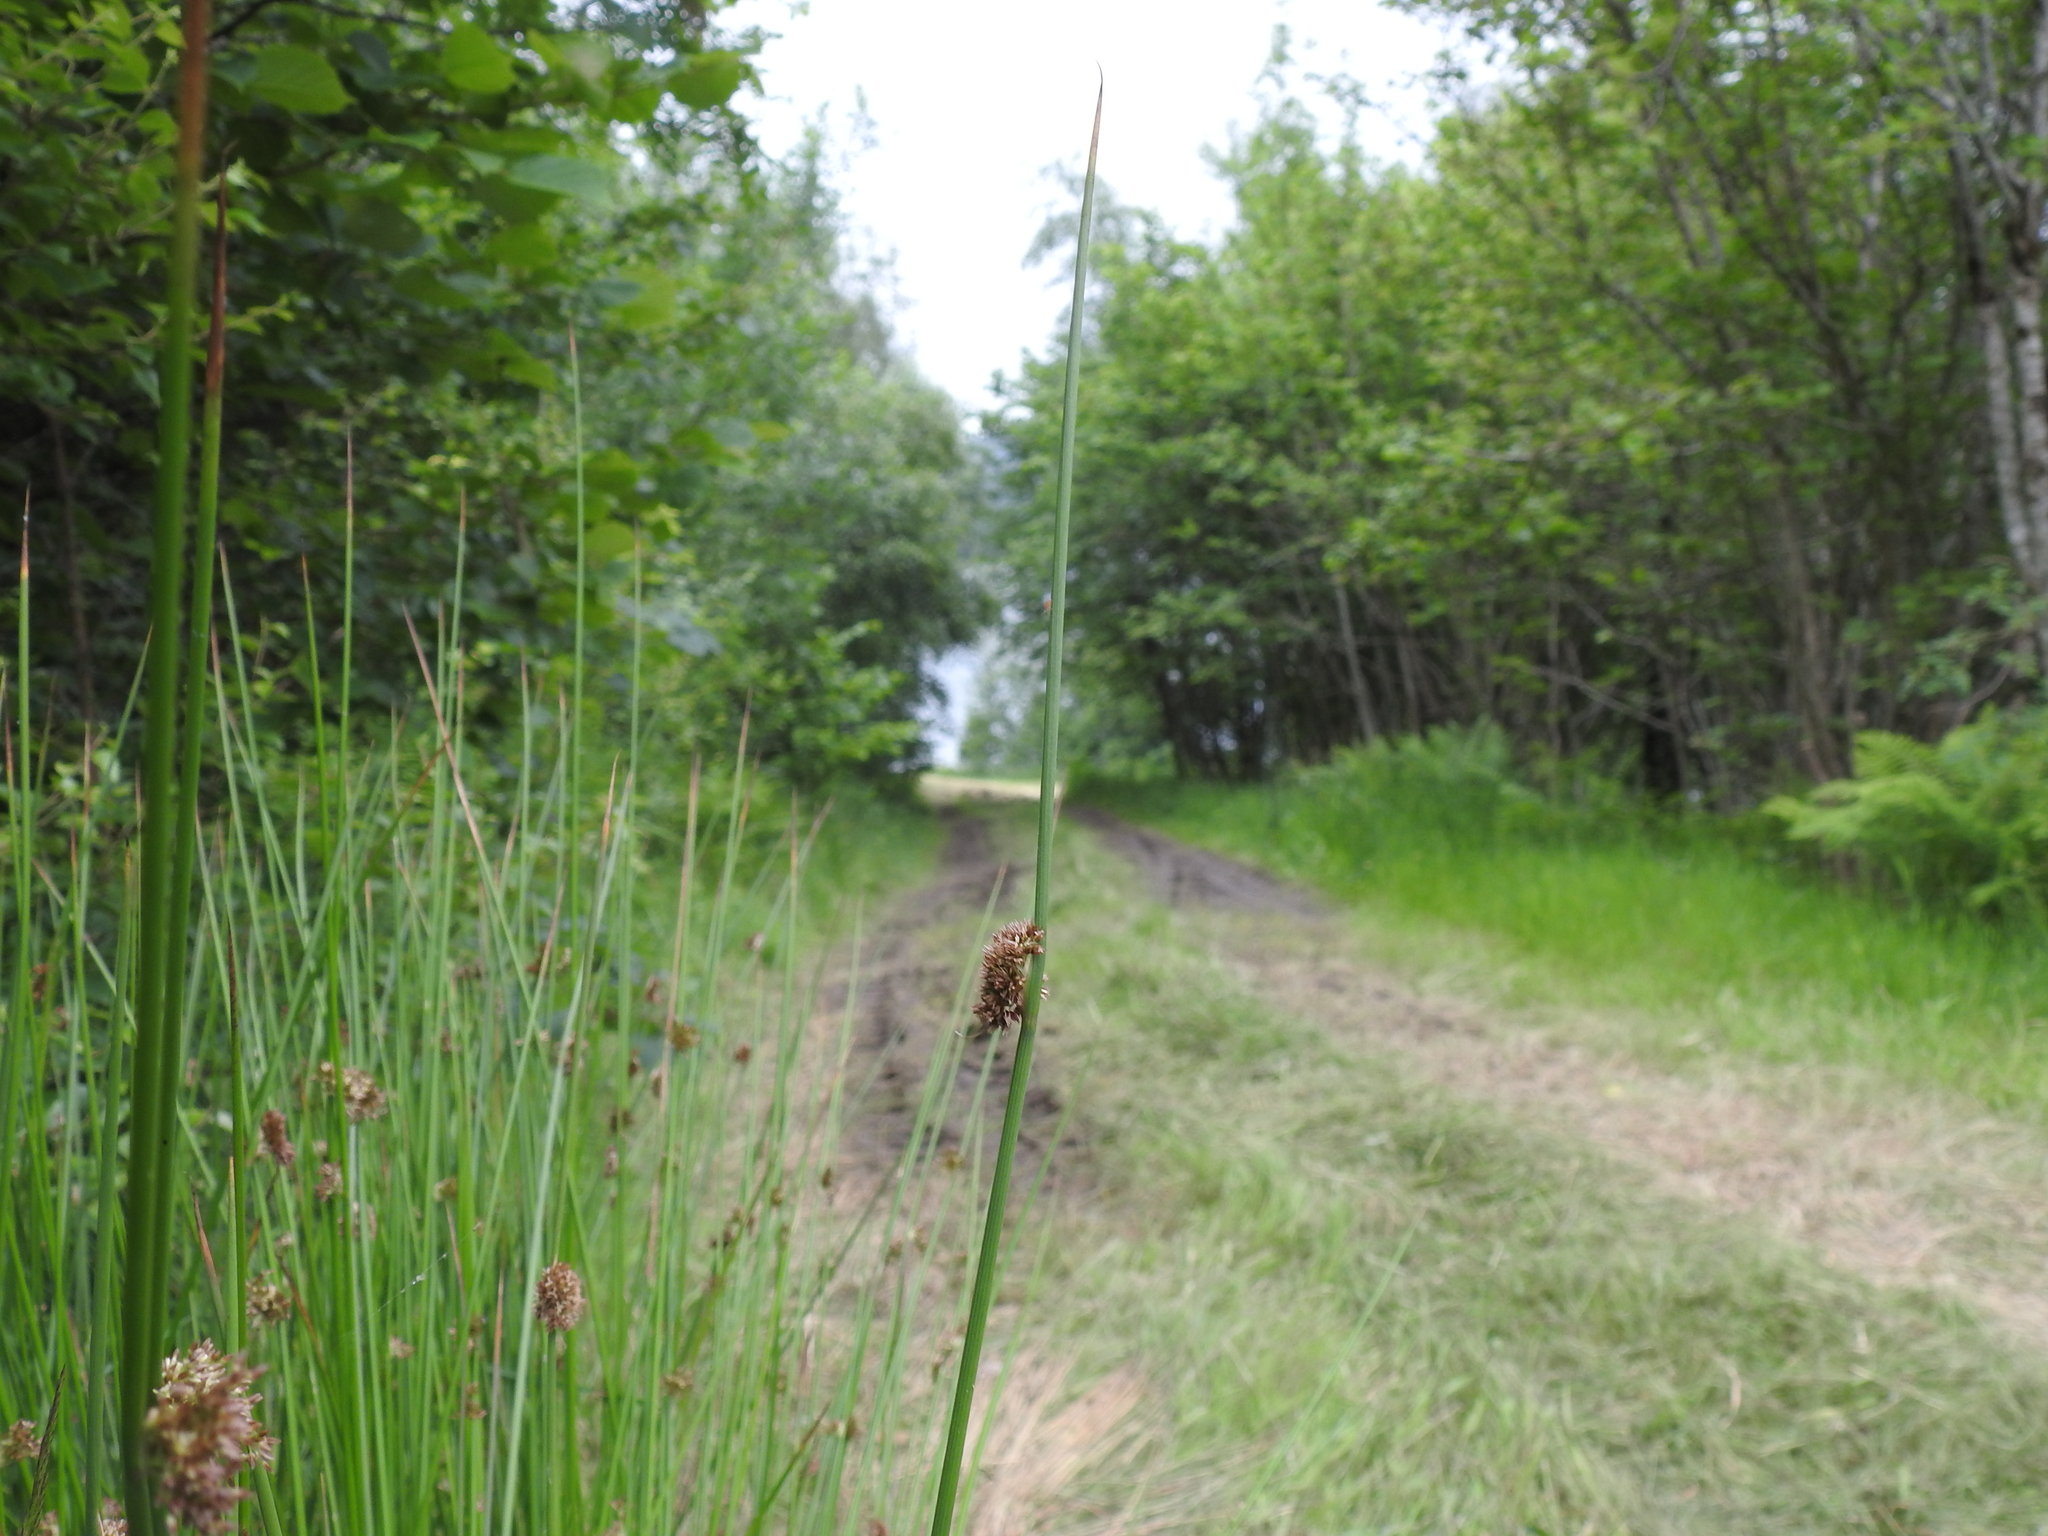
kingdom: Plantae
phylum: Tracheophyta
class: Liliopsida
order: Poales
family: Juncaceae
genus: Juncus
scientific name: Juncus effusus
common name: Soft rush
